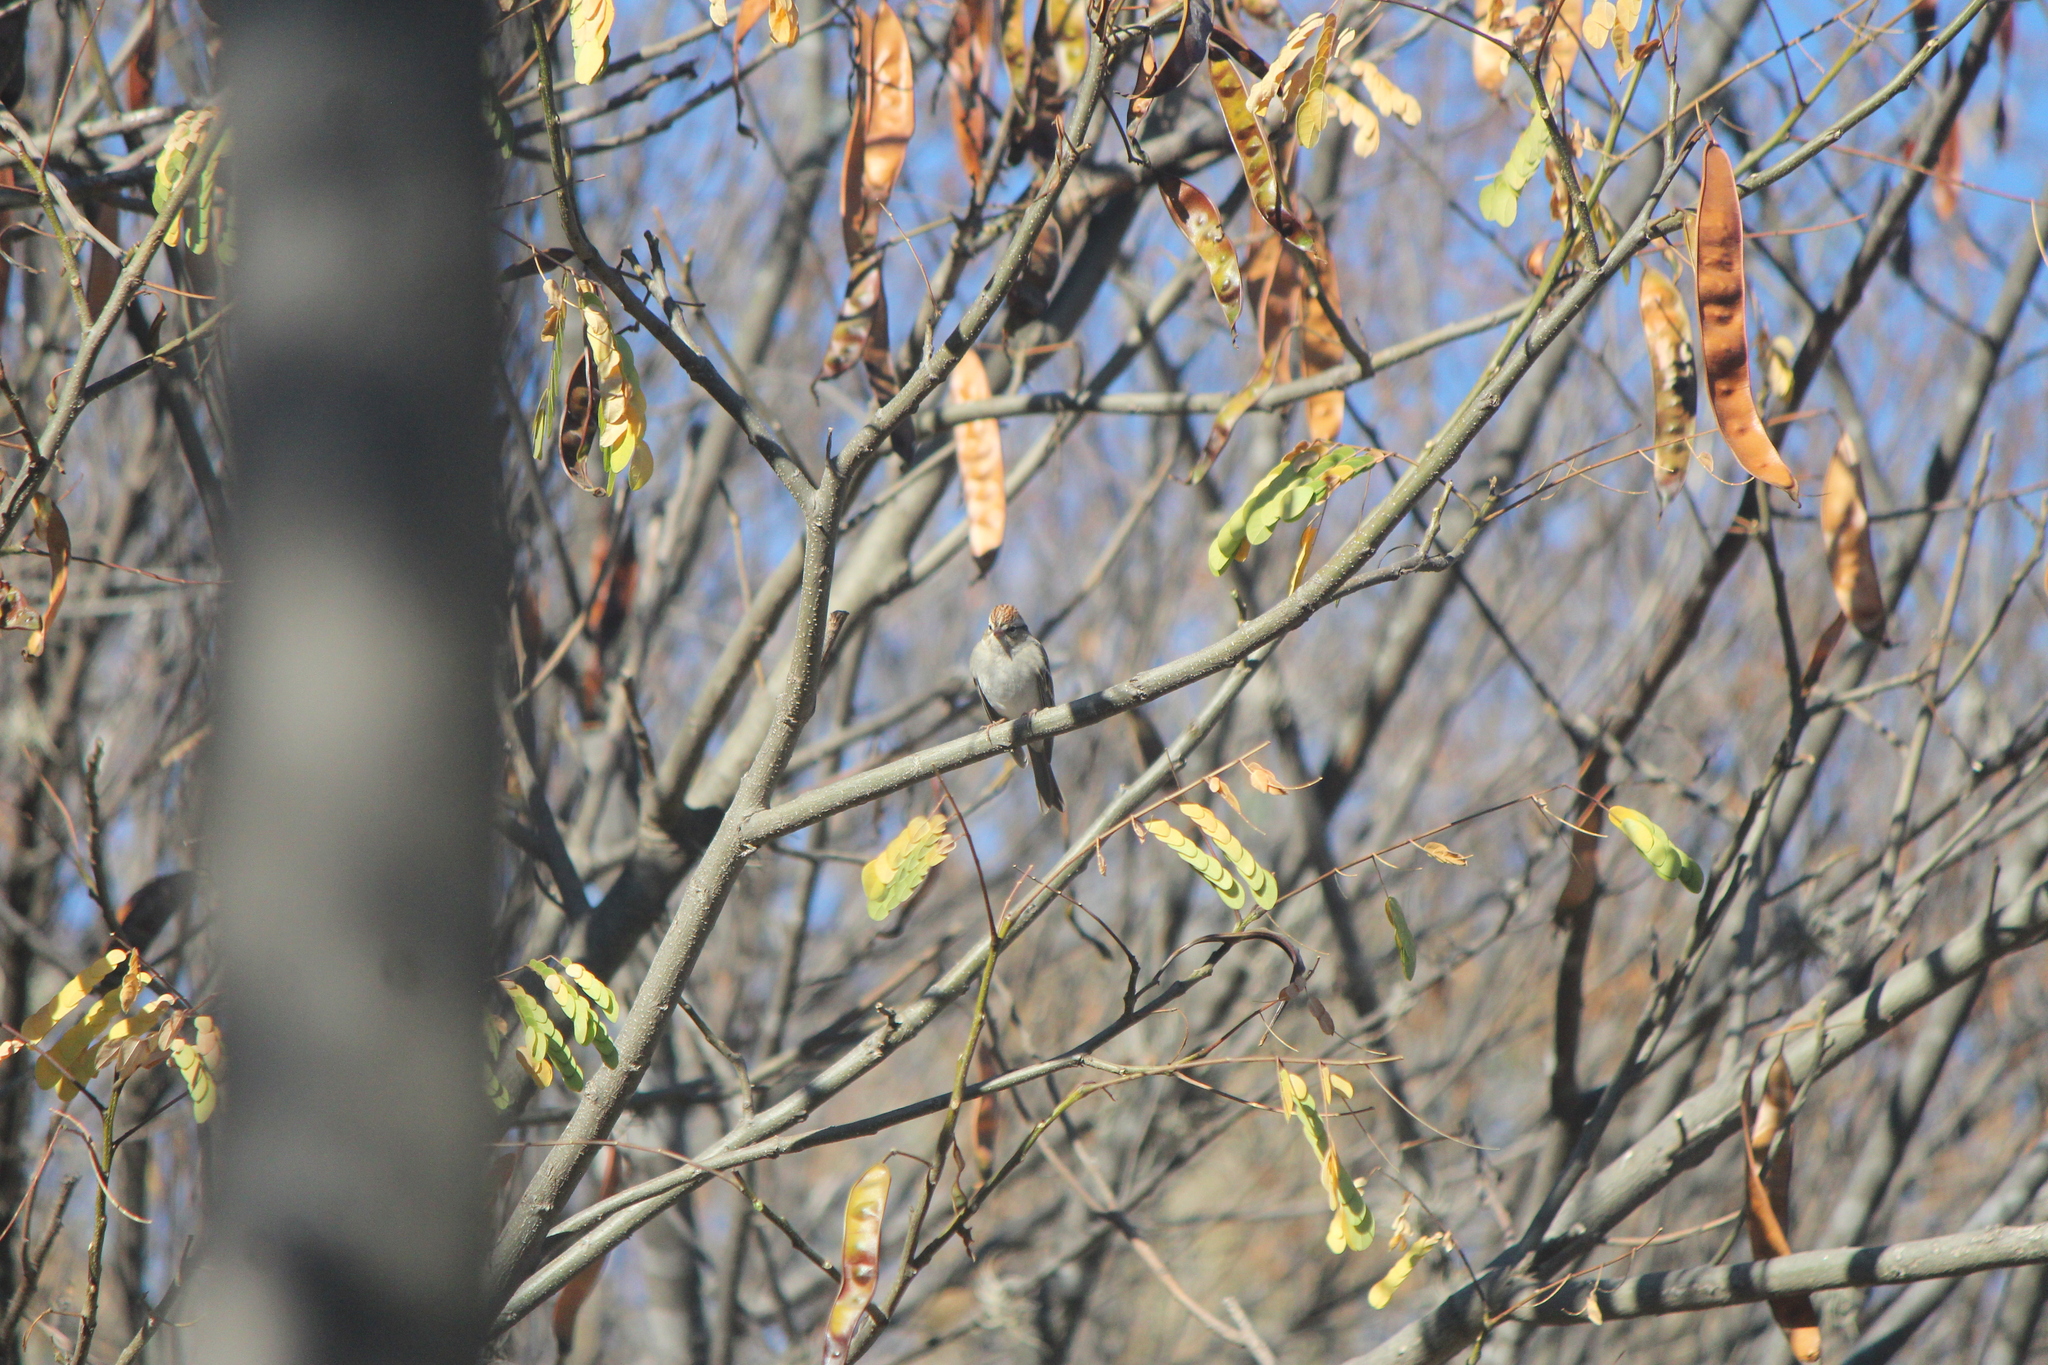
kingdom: Animalia
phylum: Chordata
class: Aves
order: Passeriformes
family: Passerellidae
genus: Spizella
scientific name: Spizella passerina
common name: Chipping sparrow
